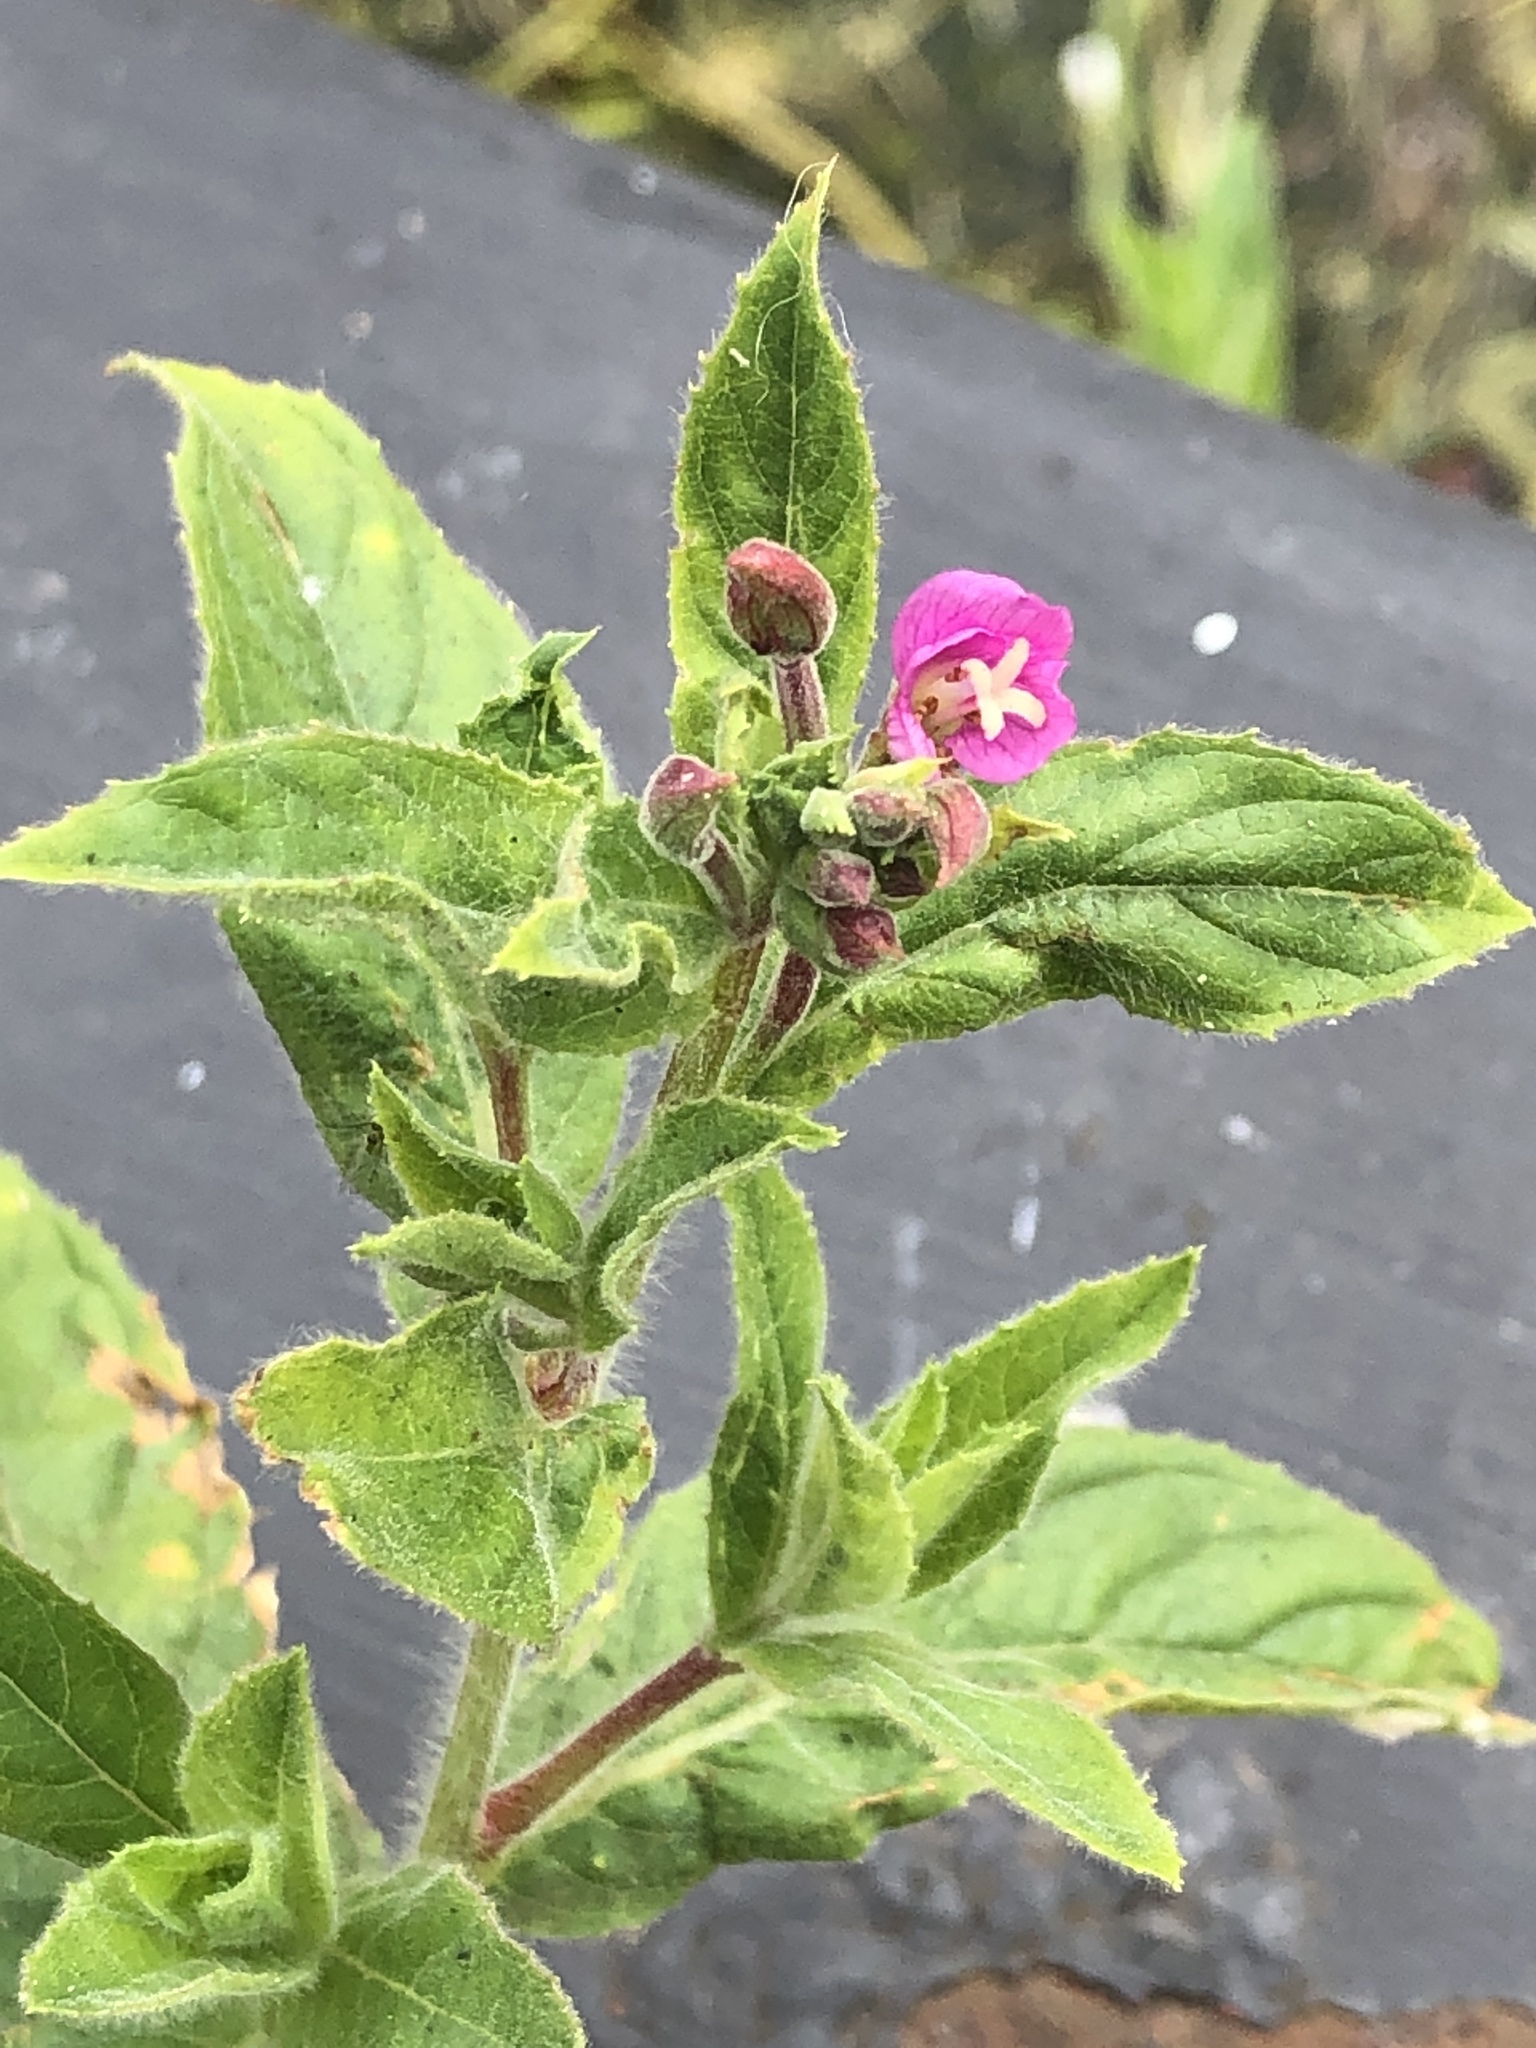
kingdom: Plantae
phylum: Tracheophyta
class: Magnoliopsida
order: Myrtales
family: Onagraceae
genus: Epilobium
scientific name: Epilobium hirsutum
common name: Great willowherb
